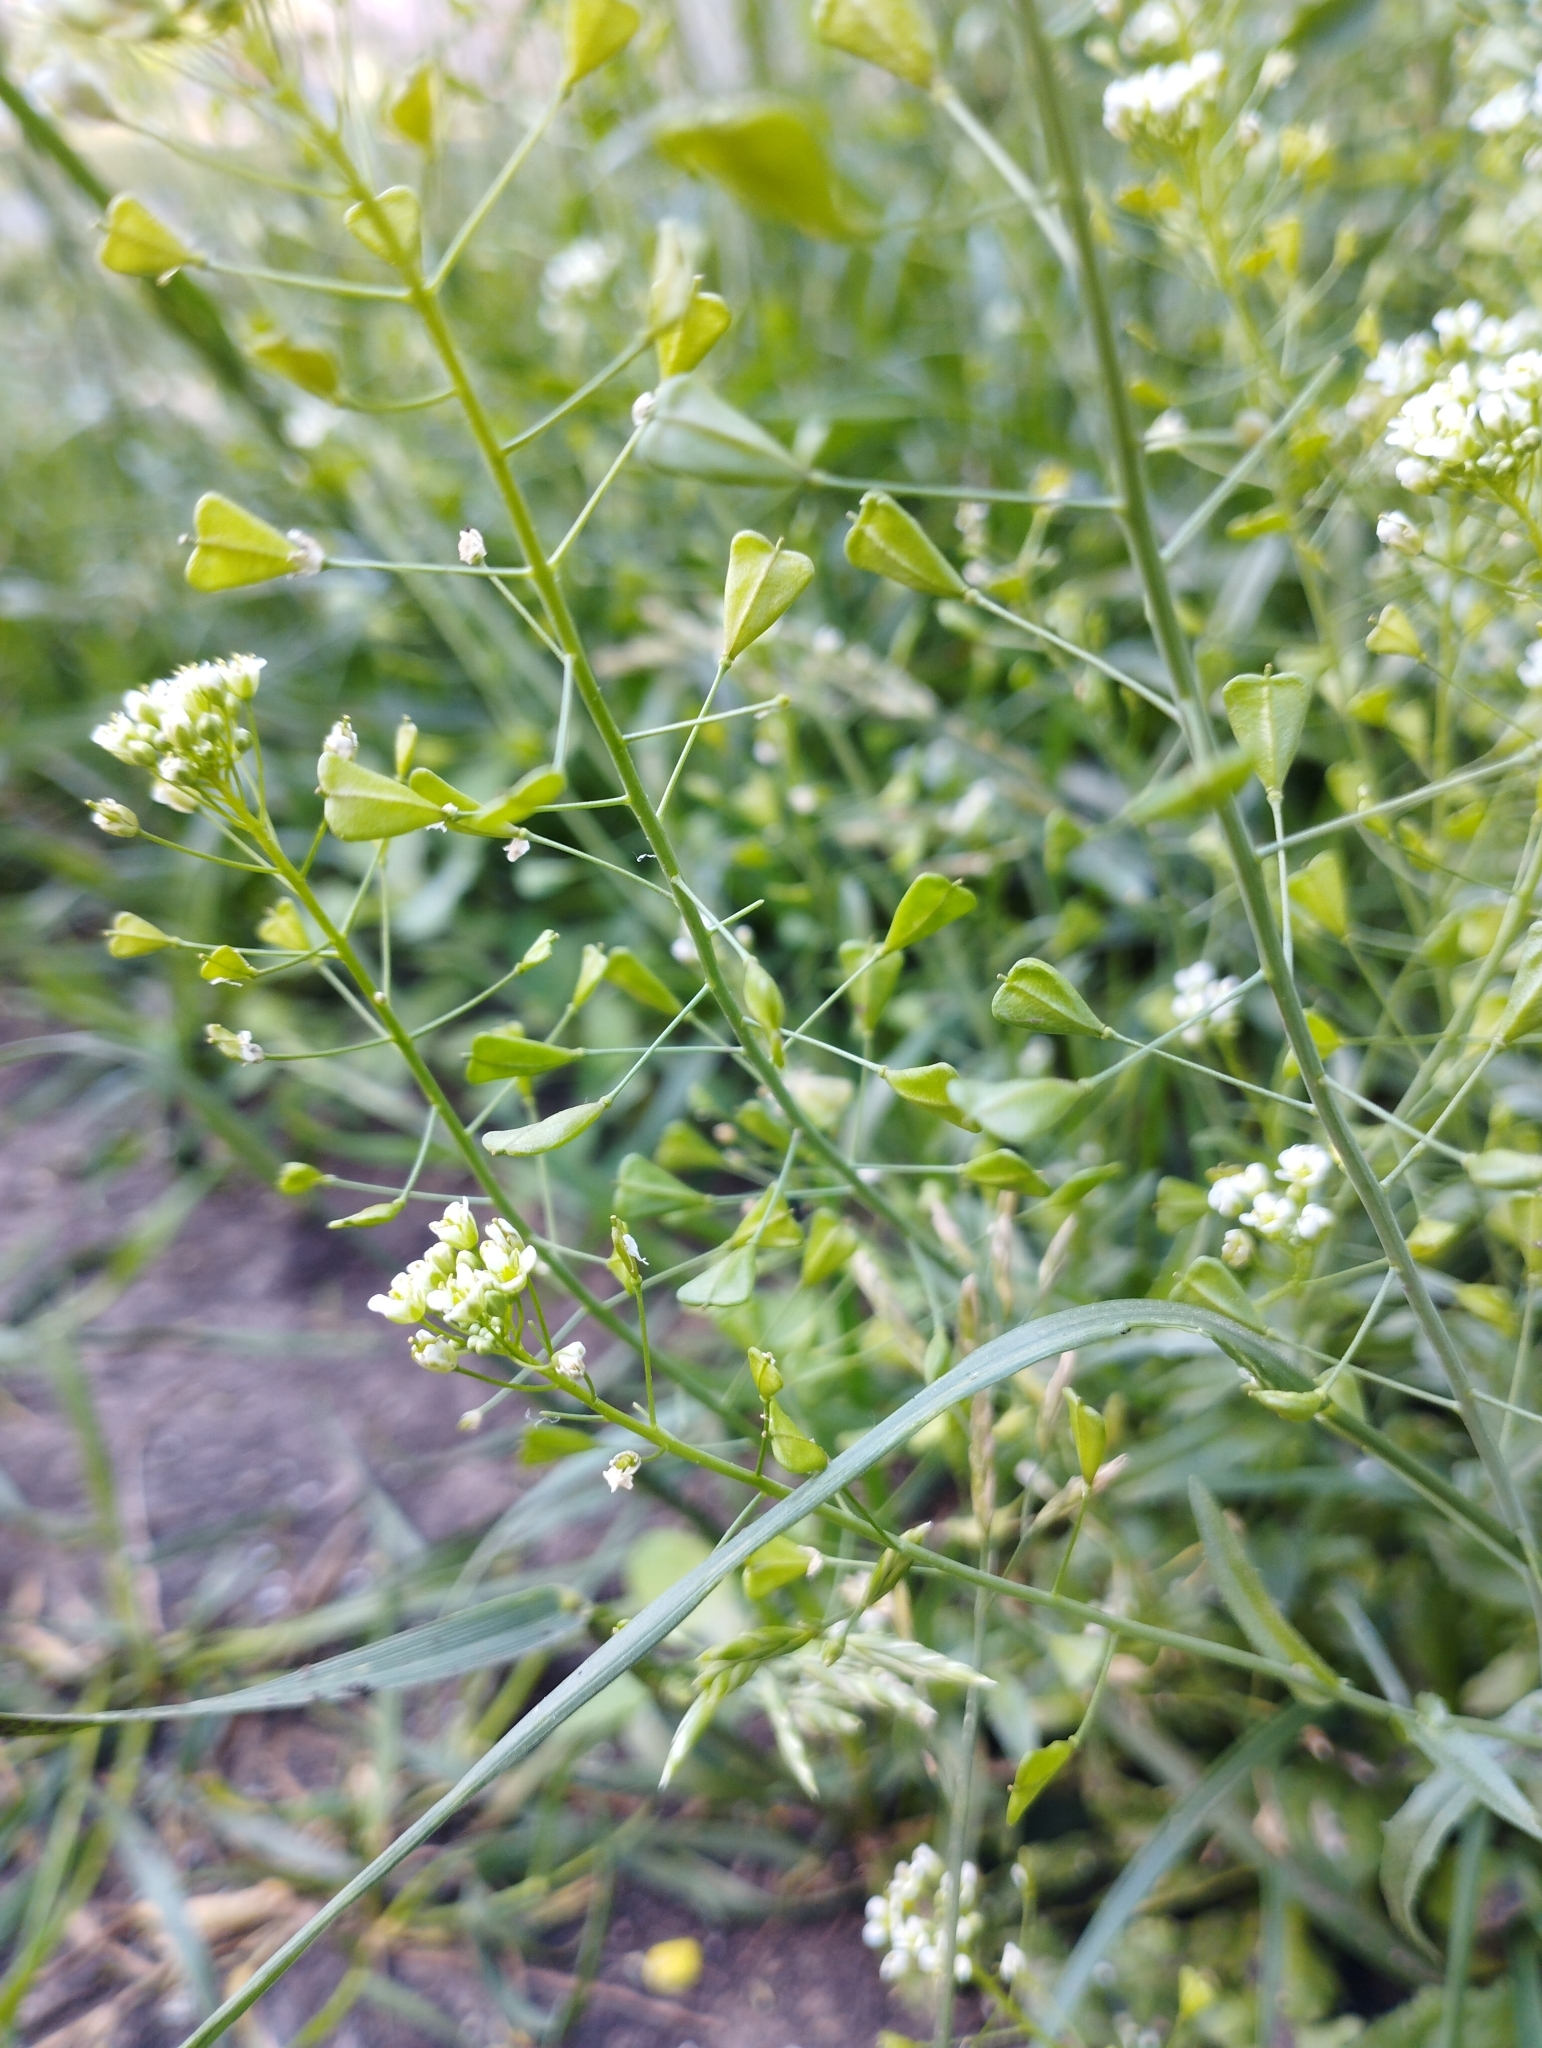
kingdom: Plantae
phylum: Tracheophyta
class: Magnoliopsida
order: Brassicales
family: Brassicaceae
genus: Capsella
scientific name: Capsella bursa-pastoris
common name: Shepherd's purse
